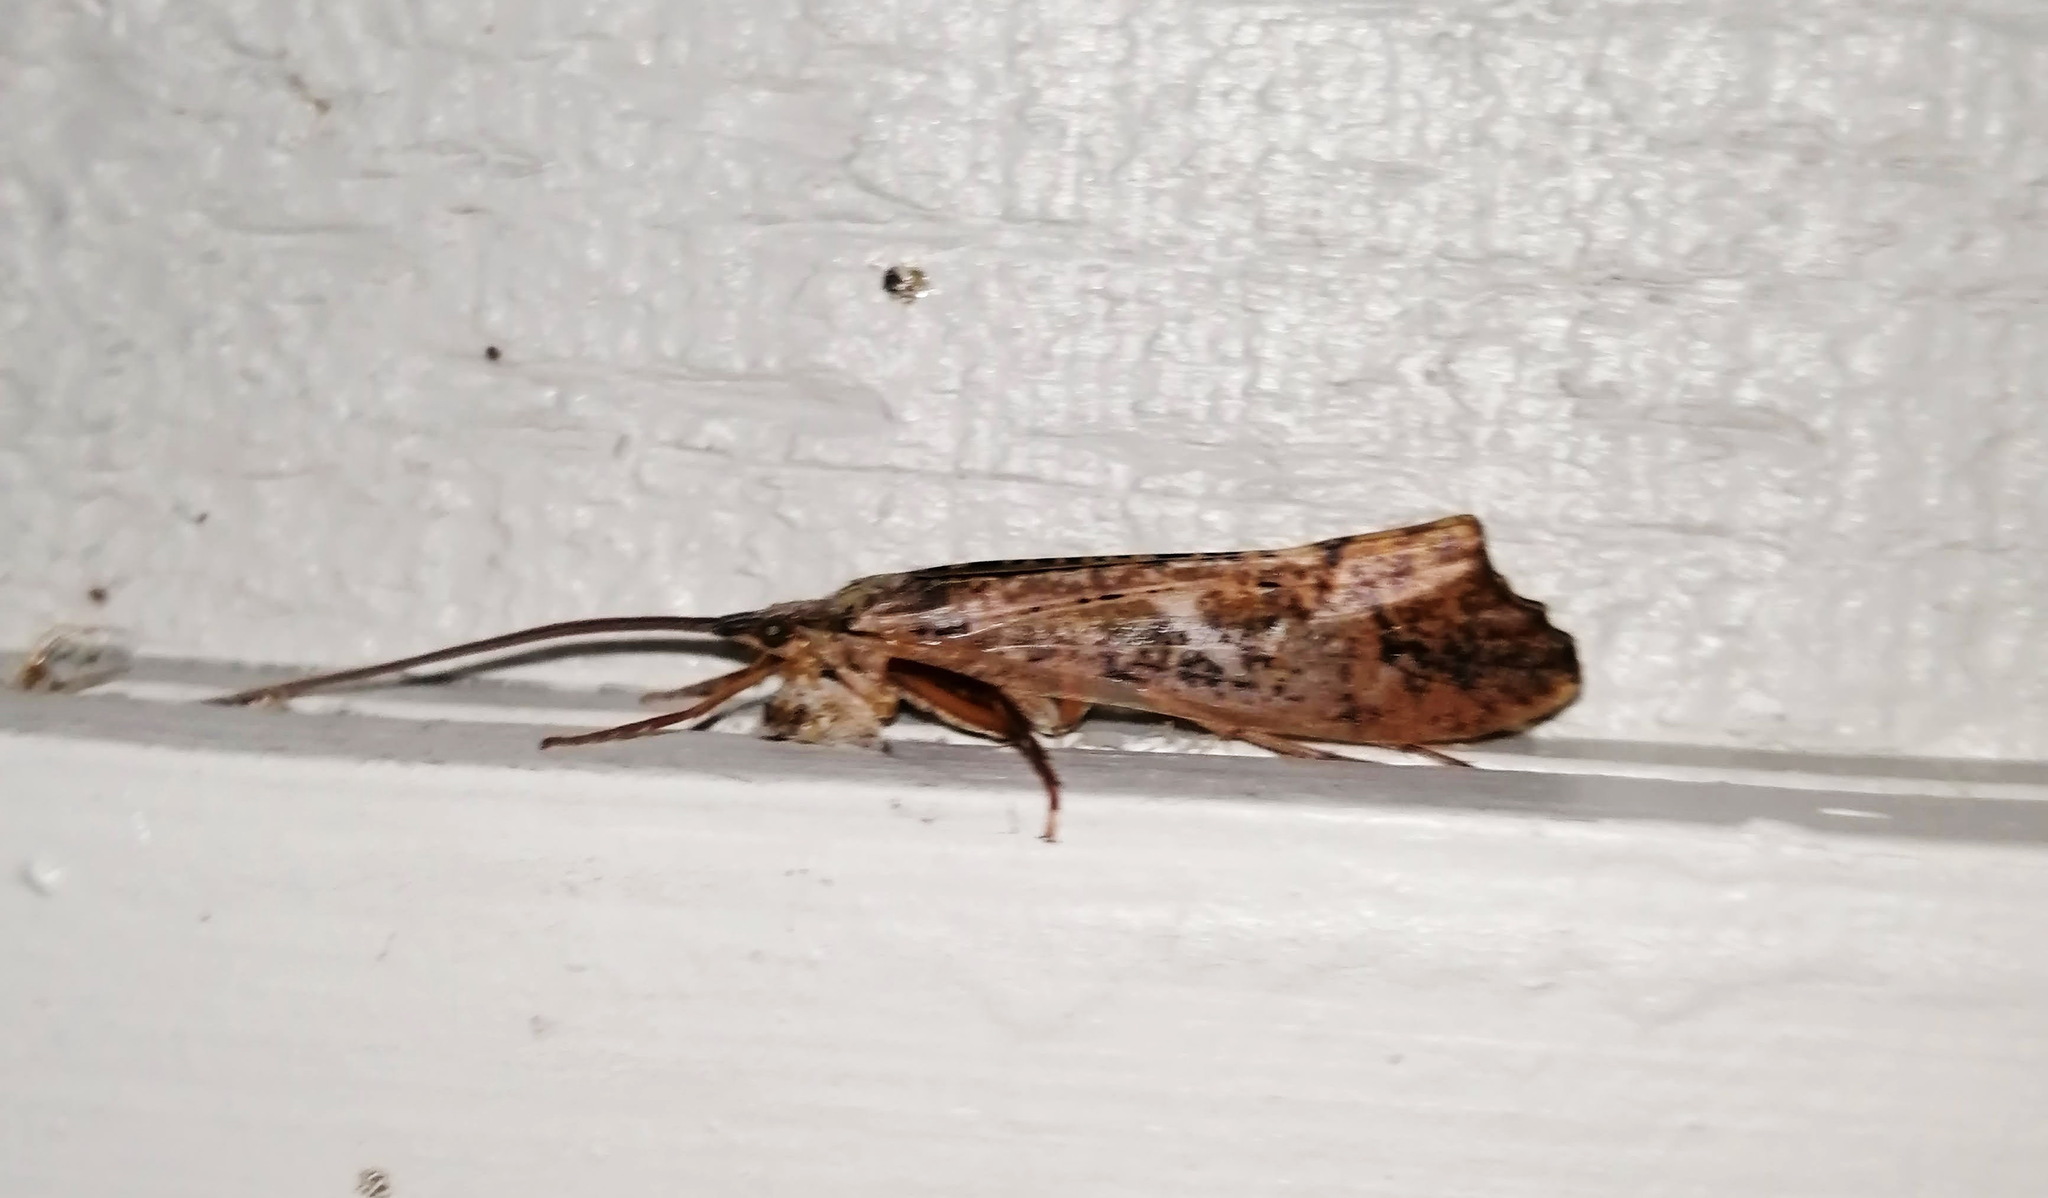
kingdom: Animalia
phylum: Arthropoda
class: Insecta
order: Trichoptera
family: Limnephilidae
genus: Nemotaulius
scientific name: Nemotaulius hostilis
